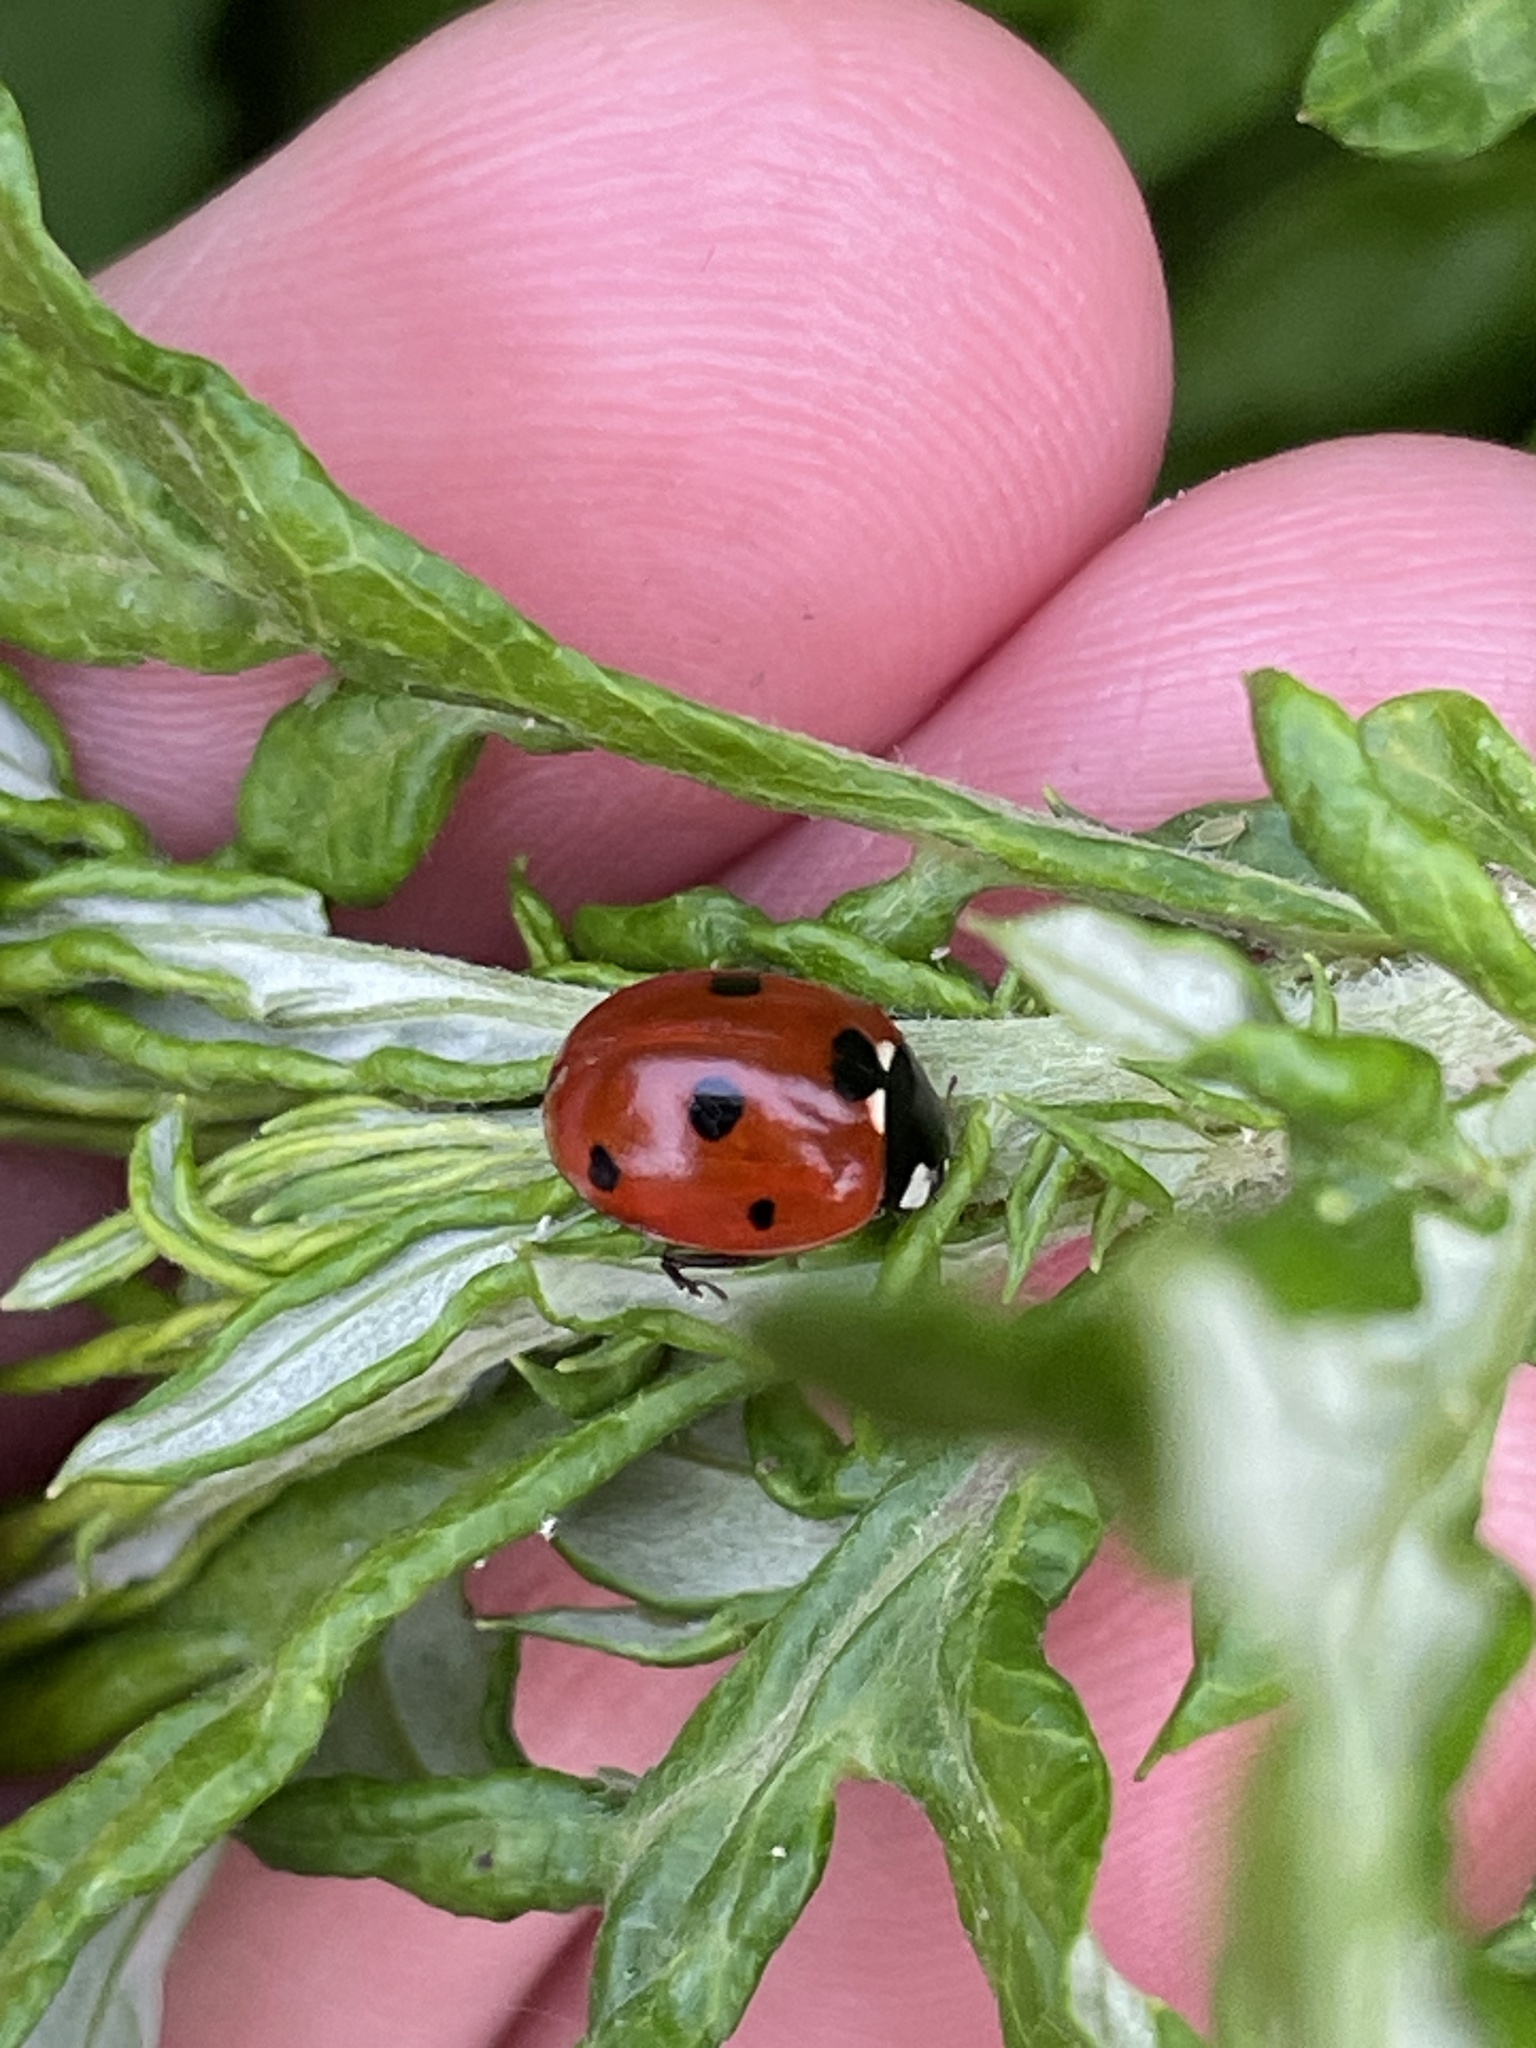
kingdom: Animalia
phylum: Arthropoda
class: Insecta
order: Coleoptera
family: Coccinellidae
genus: Coccinella
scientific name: Coccinella septempunctata
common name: Sevenspotted lady beetle
